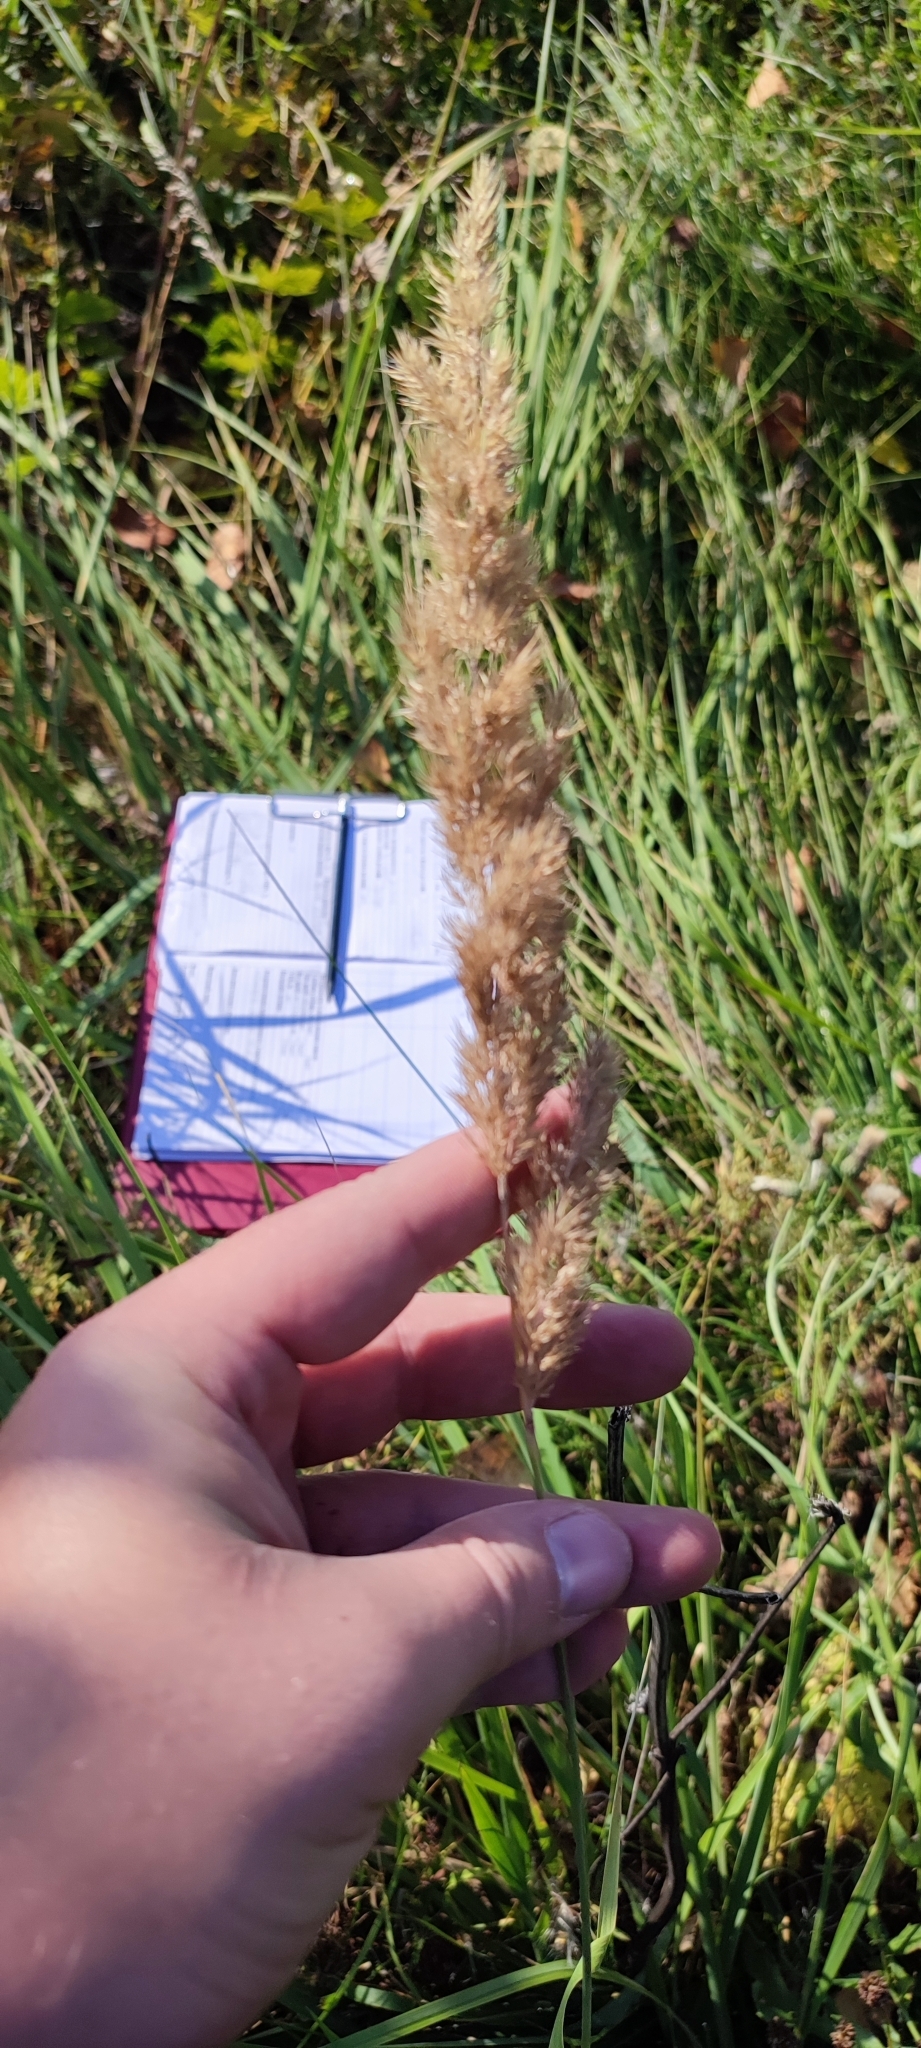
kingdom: Plantae
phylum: Tracheophyta
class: Liliopsida
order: Poales
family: Poaceae
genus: Calamagrostis
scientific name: Calamagrostis epigejos
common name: Wood small-reed
